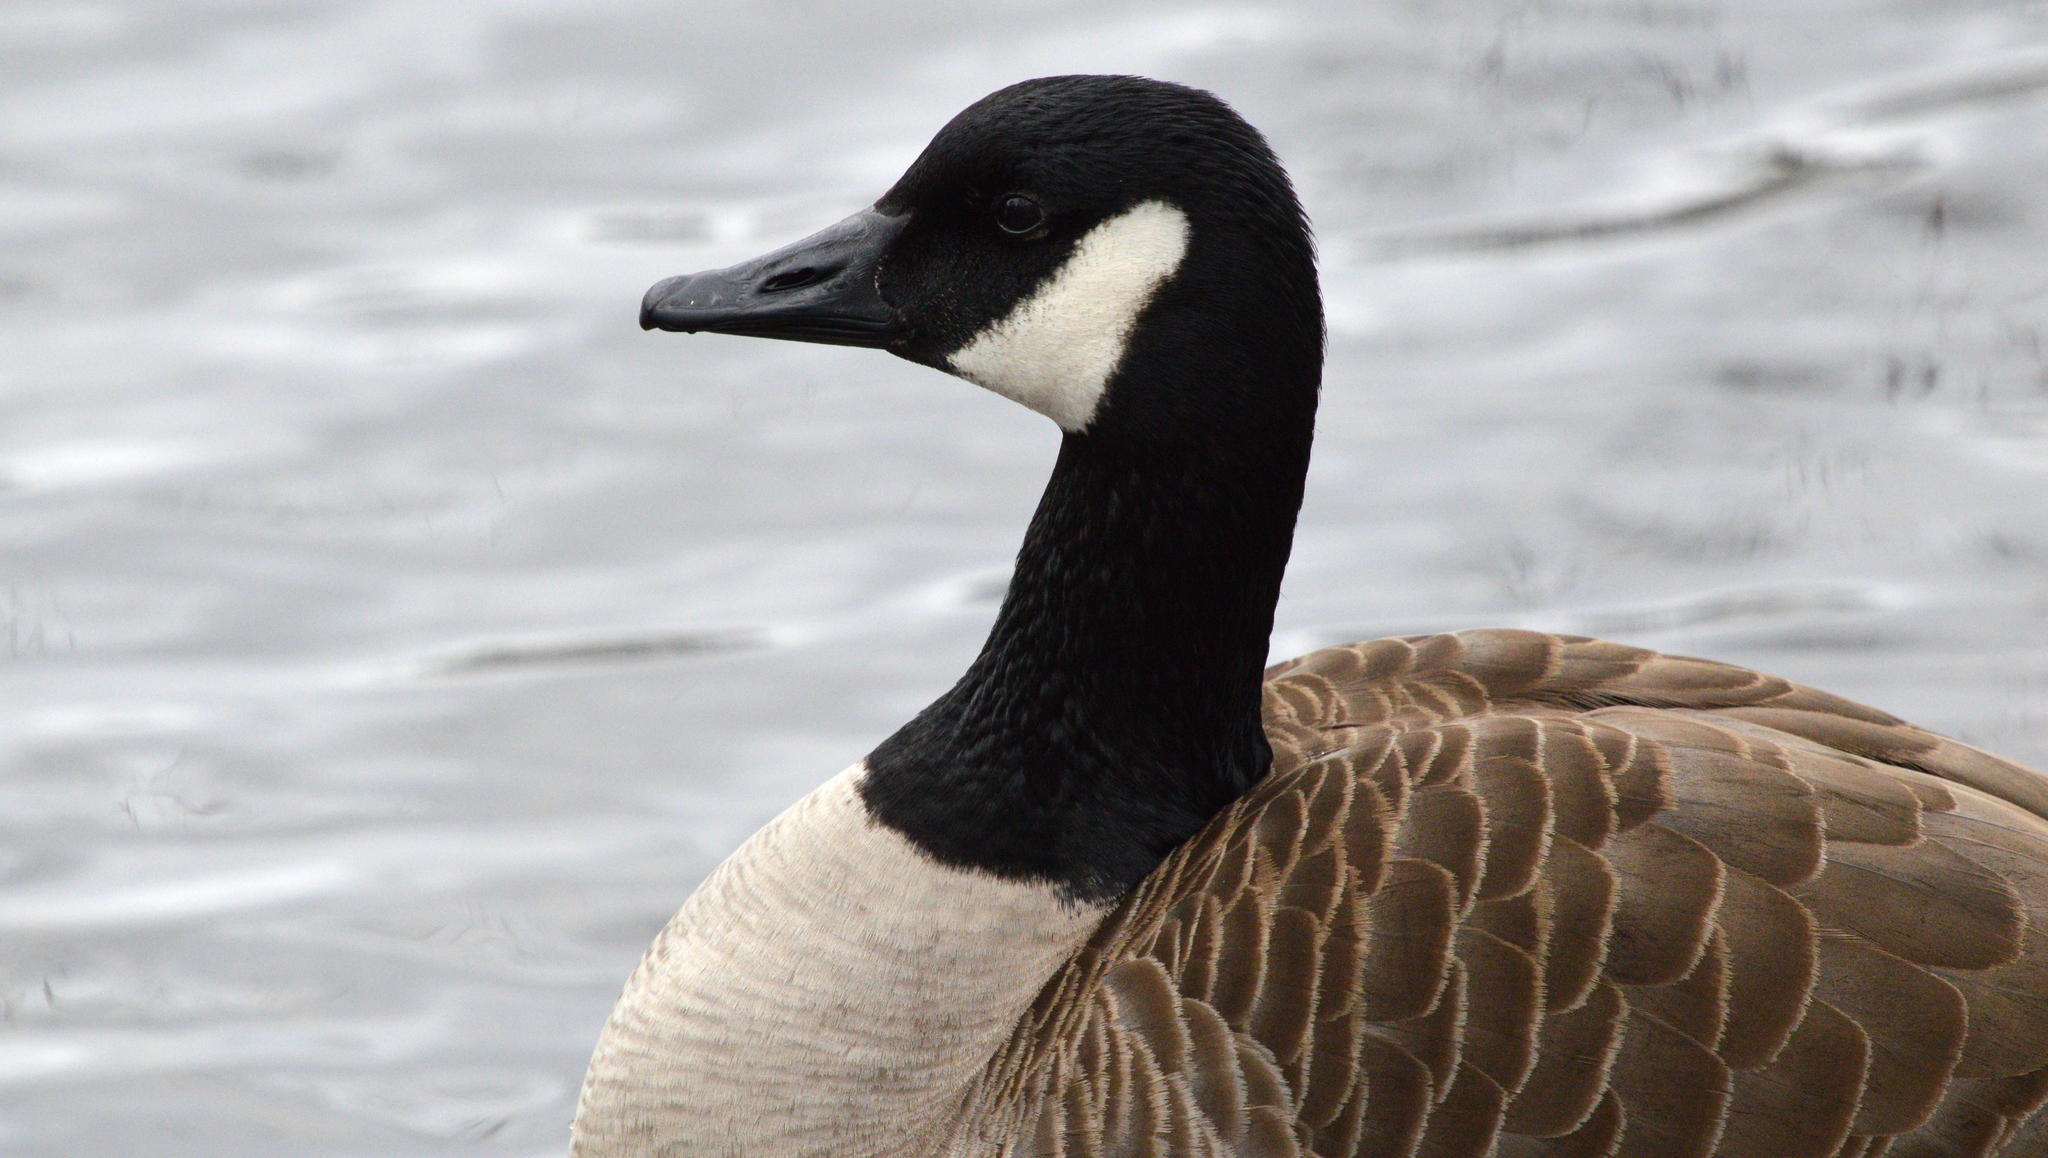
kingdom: Animalia
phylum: Chordata
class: Aves
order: Anseriformes
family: Anatidae
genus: Branta
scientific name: Branta canadensis
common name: Canada goose
